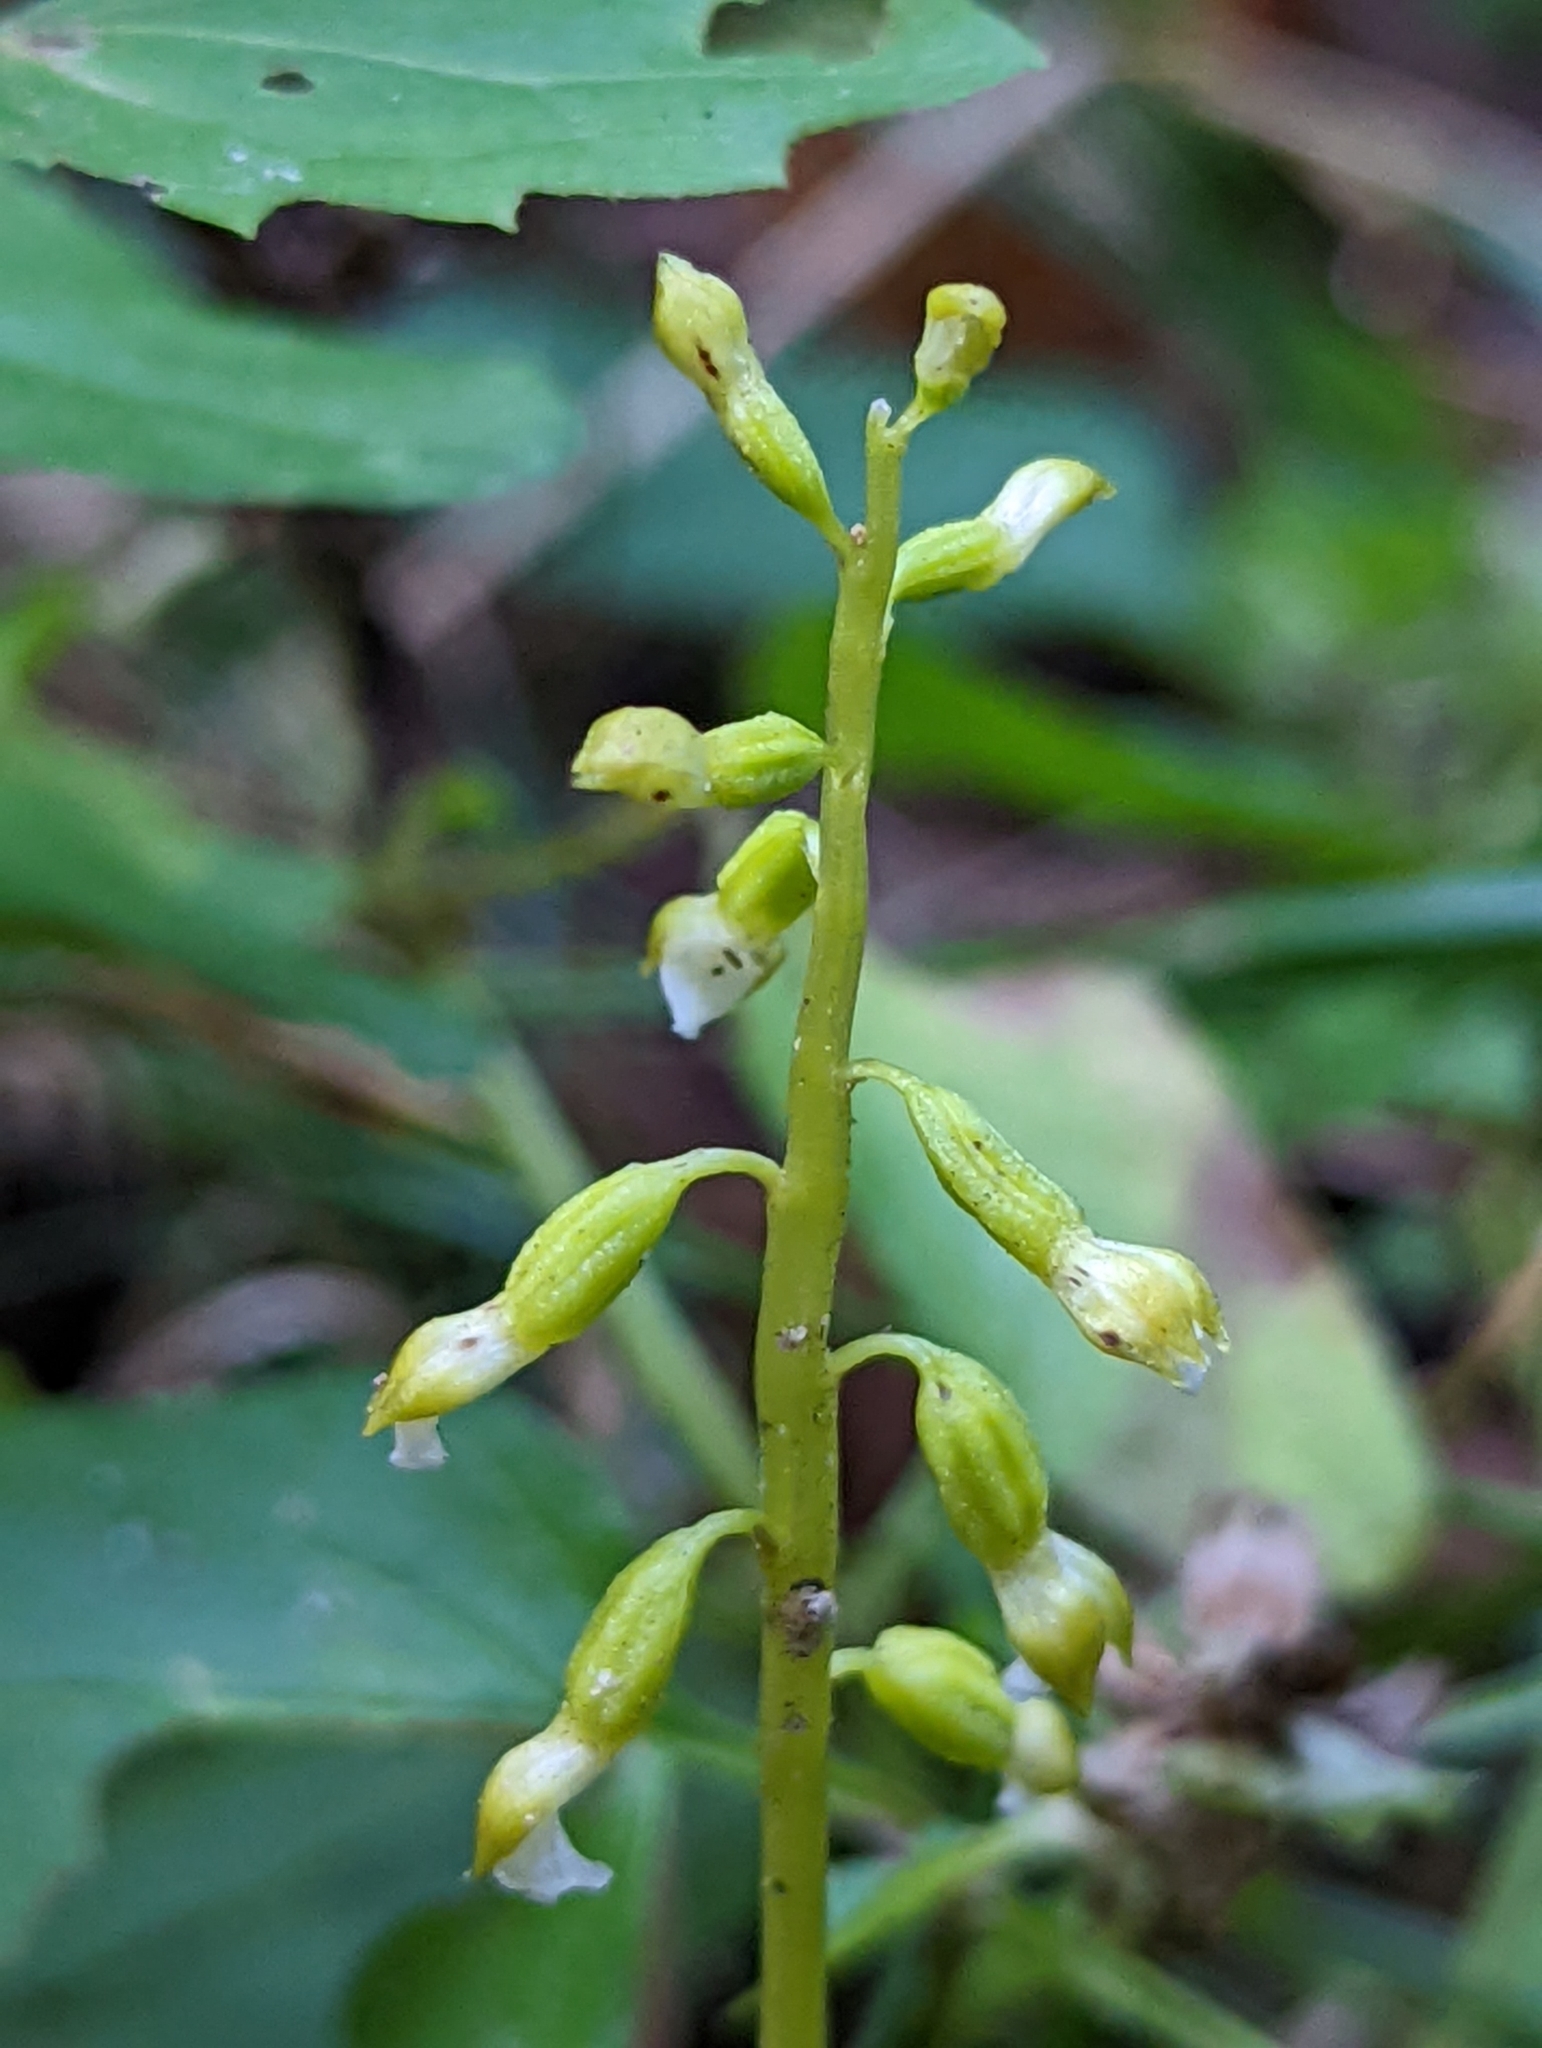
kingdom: Plantae
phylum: Tracheophyta
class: Liliopsida
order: Asparagales
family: Orchidaceae
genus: Corallorhiza
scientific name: Corallorhiza odontorhiza
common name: Autumn coralroot
